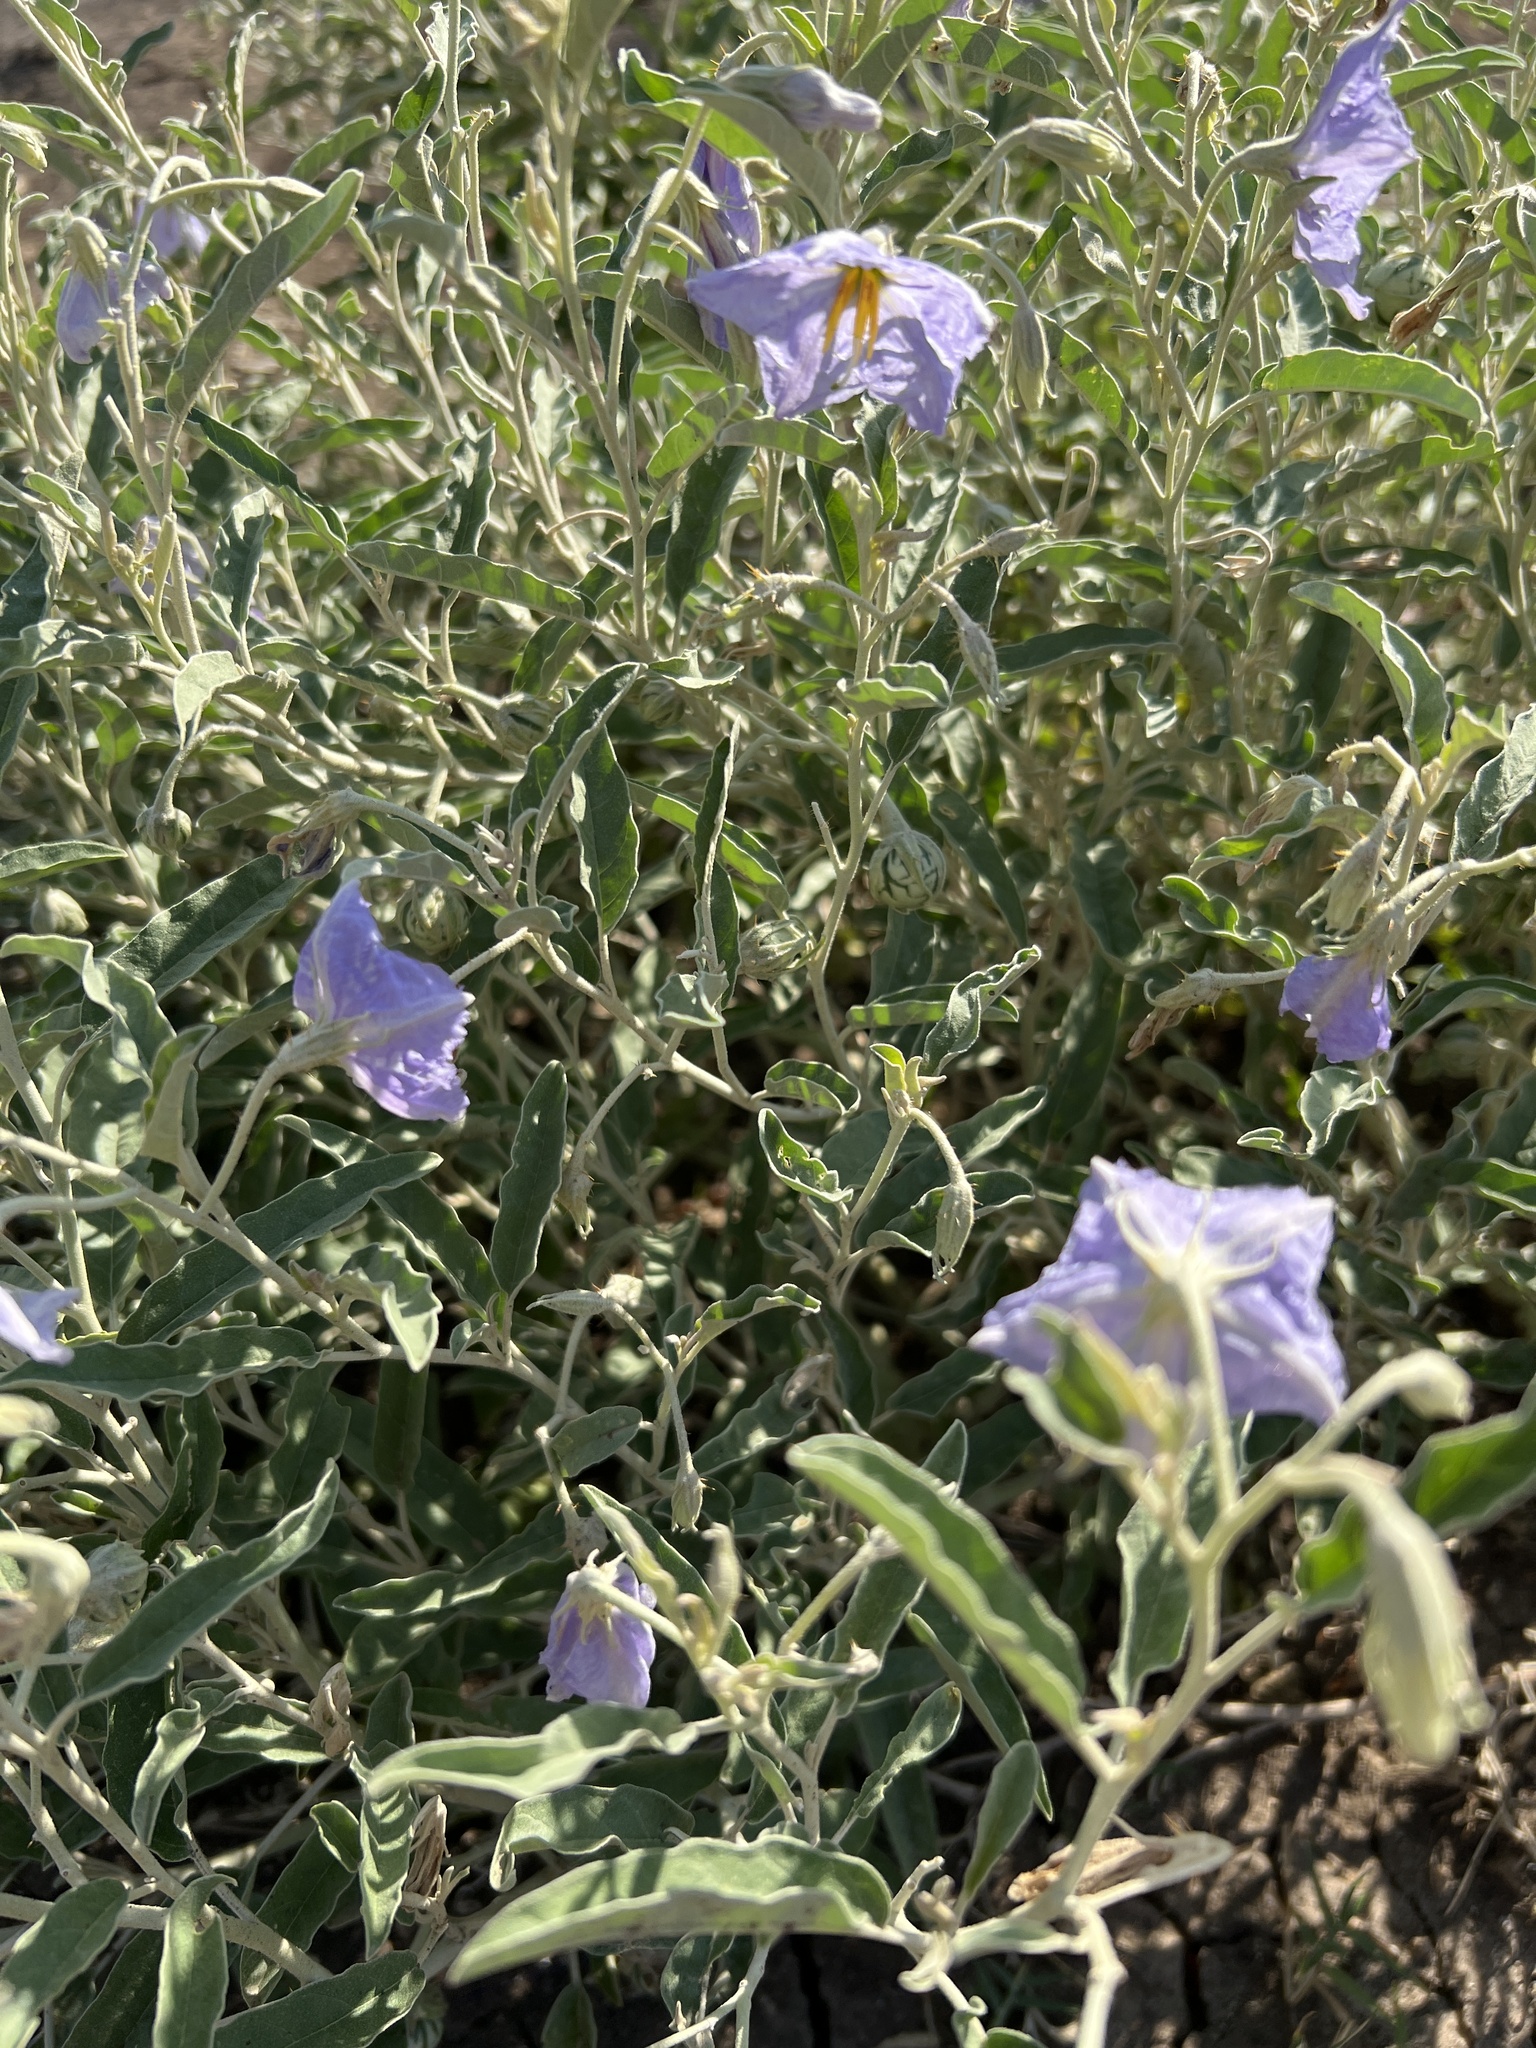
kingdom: Plantae
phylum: Tracheophyta
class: Magnoliopsida
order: Solanales
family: Solanaceae
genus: Solanum
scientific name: Solanum elaeagnifolium
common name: Silverleaf nightshade
